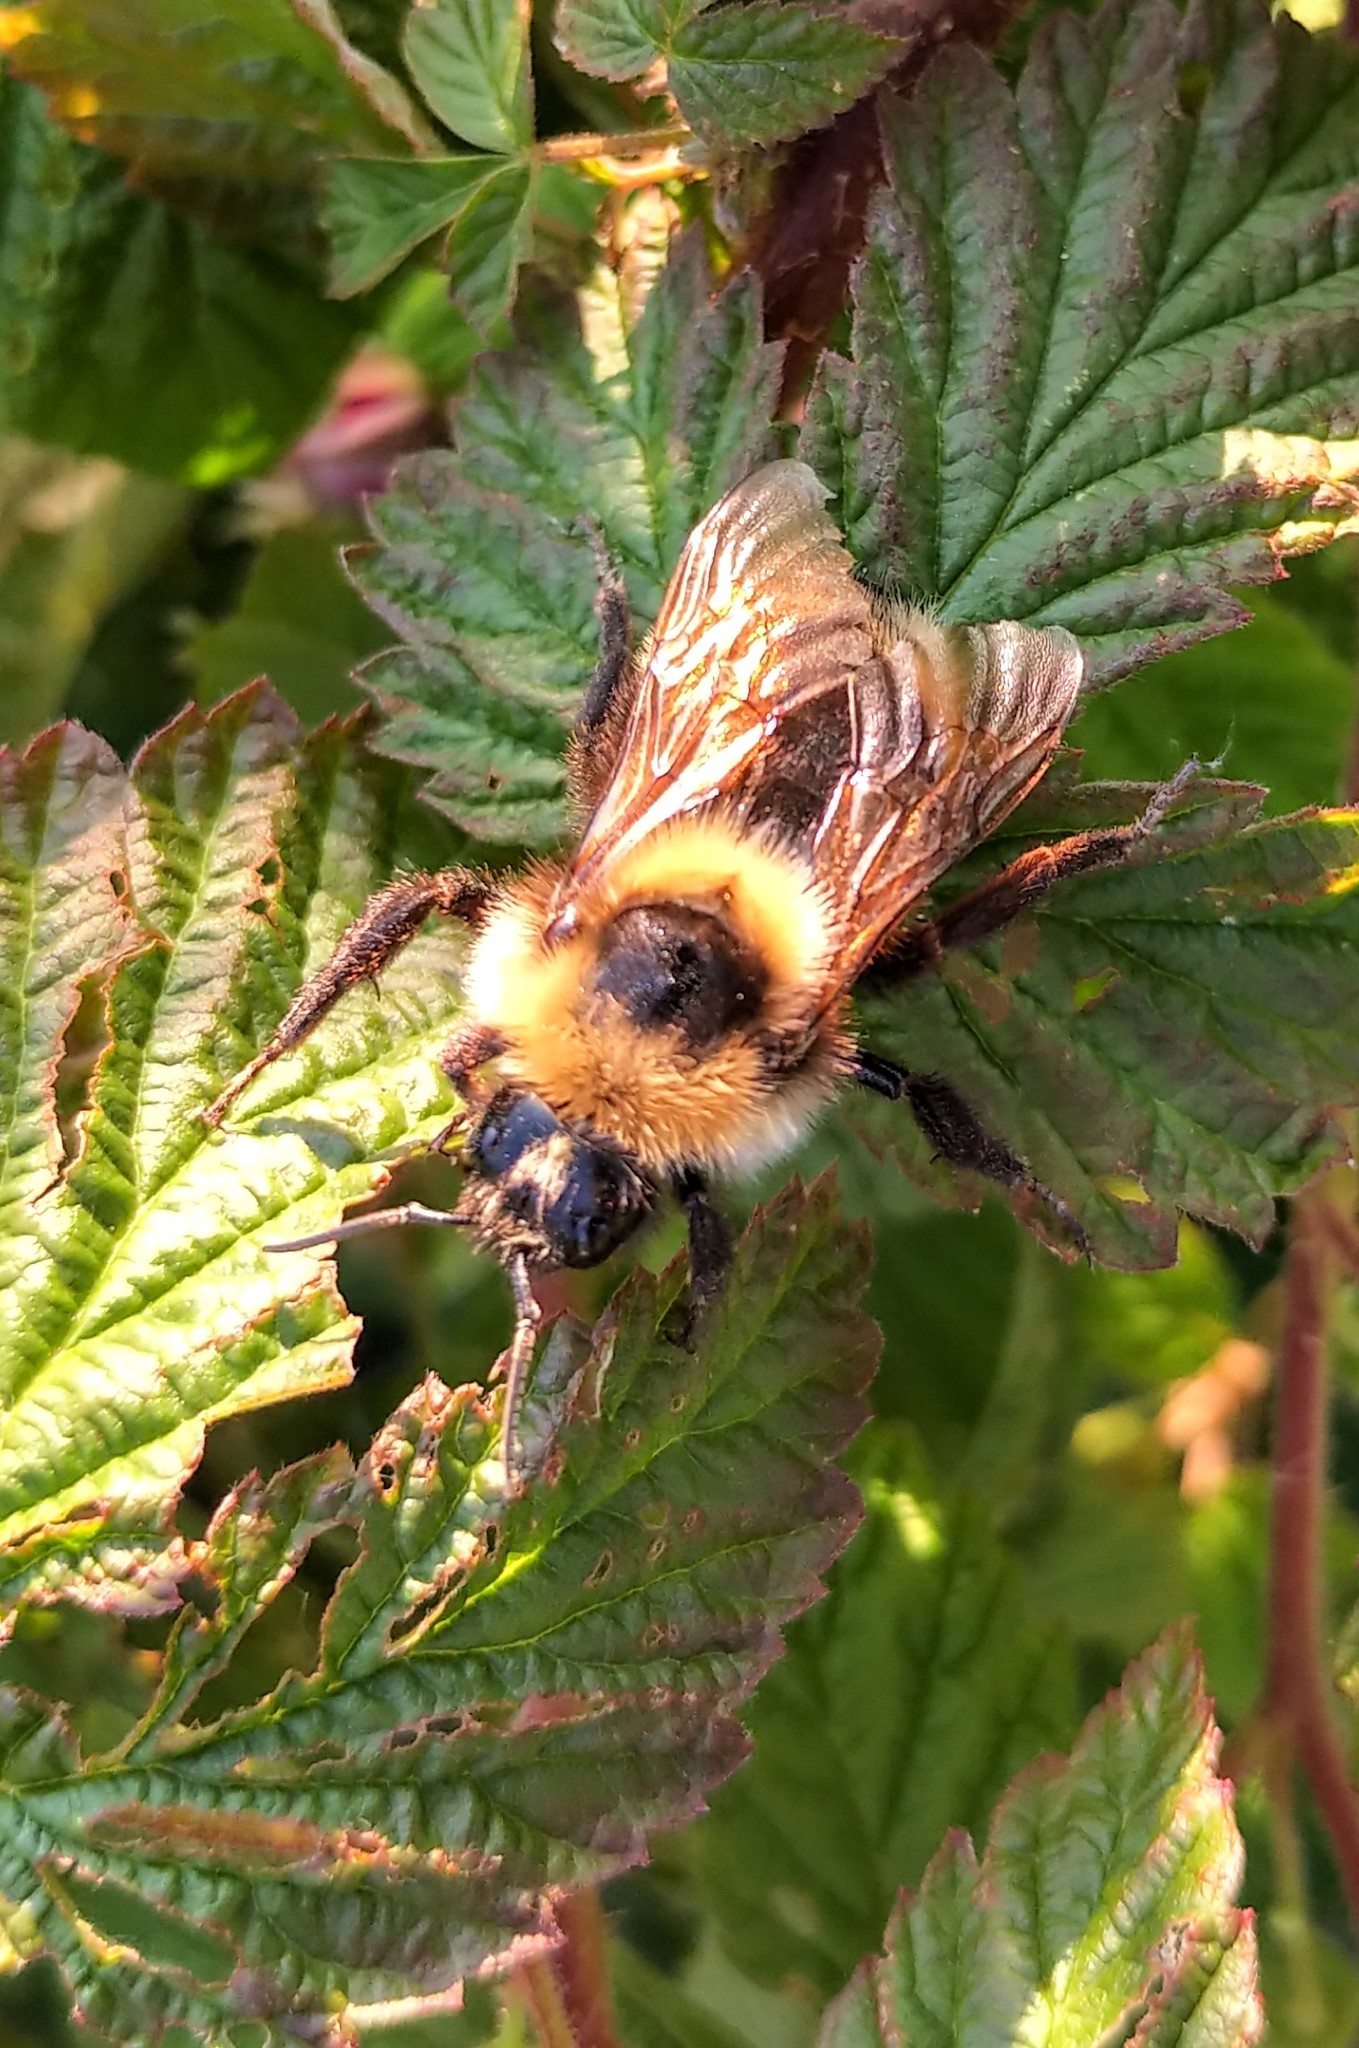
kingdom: Animalia
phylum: Arthropoda
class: Insecta
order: Hymenoptera
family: Apidae
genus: Bombus
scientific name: Bombus insularis
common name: Indiscriminate cuckoo bumble bee
